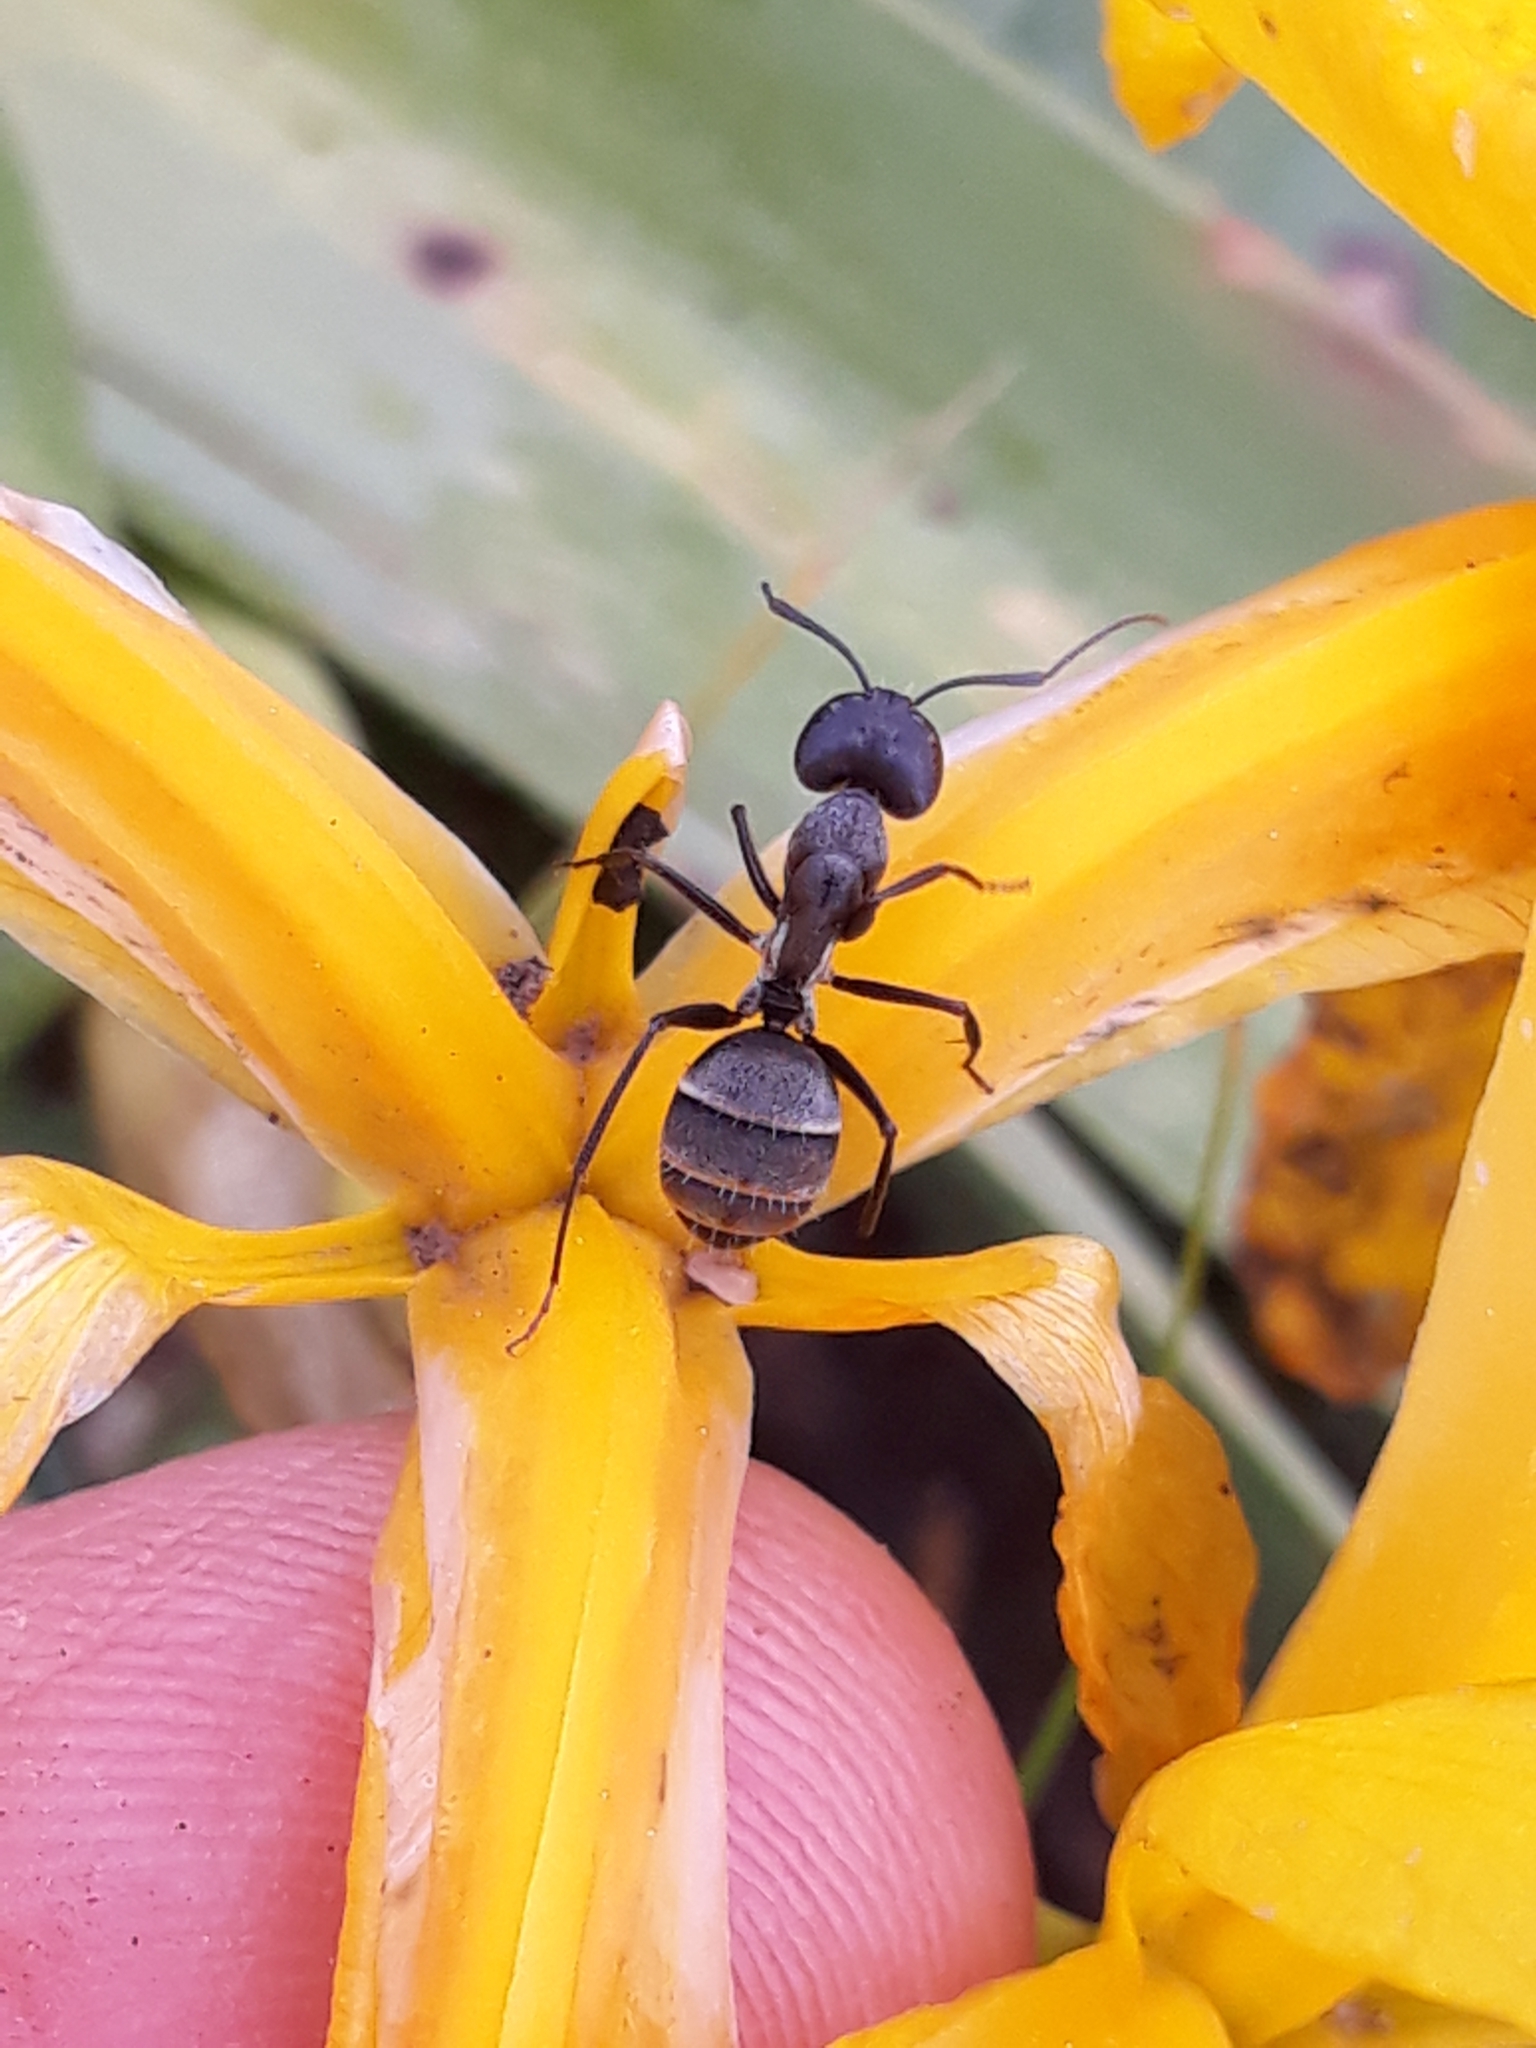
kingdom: Animalia
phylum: Arthropoda
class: Insecta
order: Hymenoptera
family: Formicidae
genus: Camponotus
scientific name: Camponotus micans
